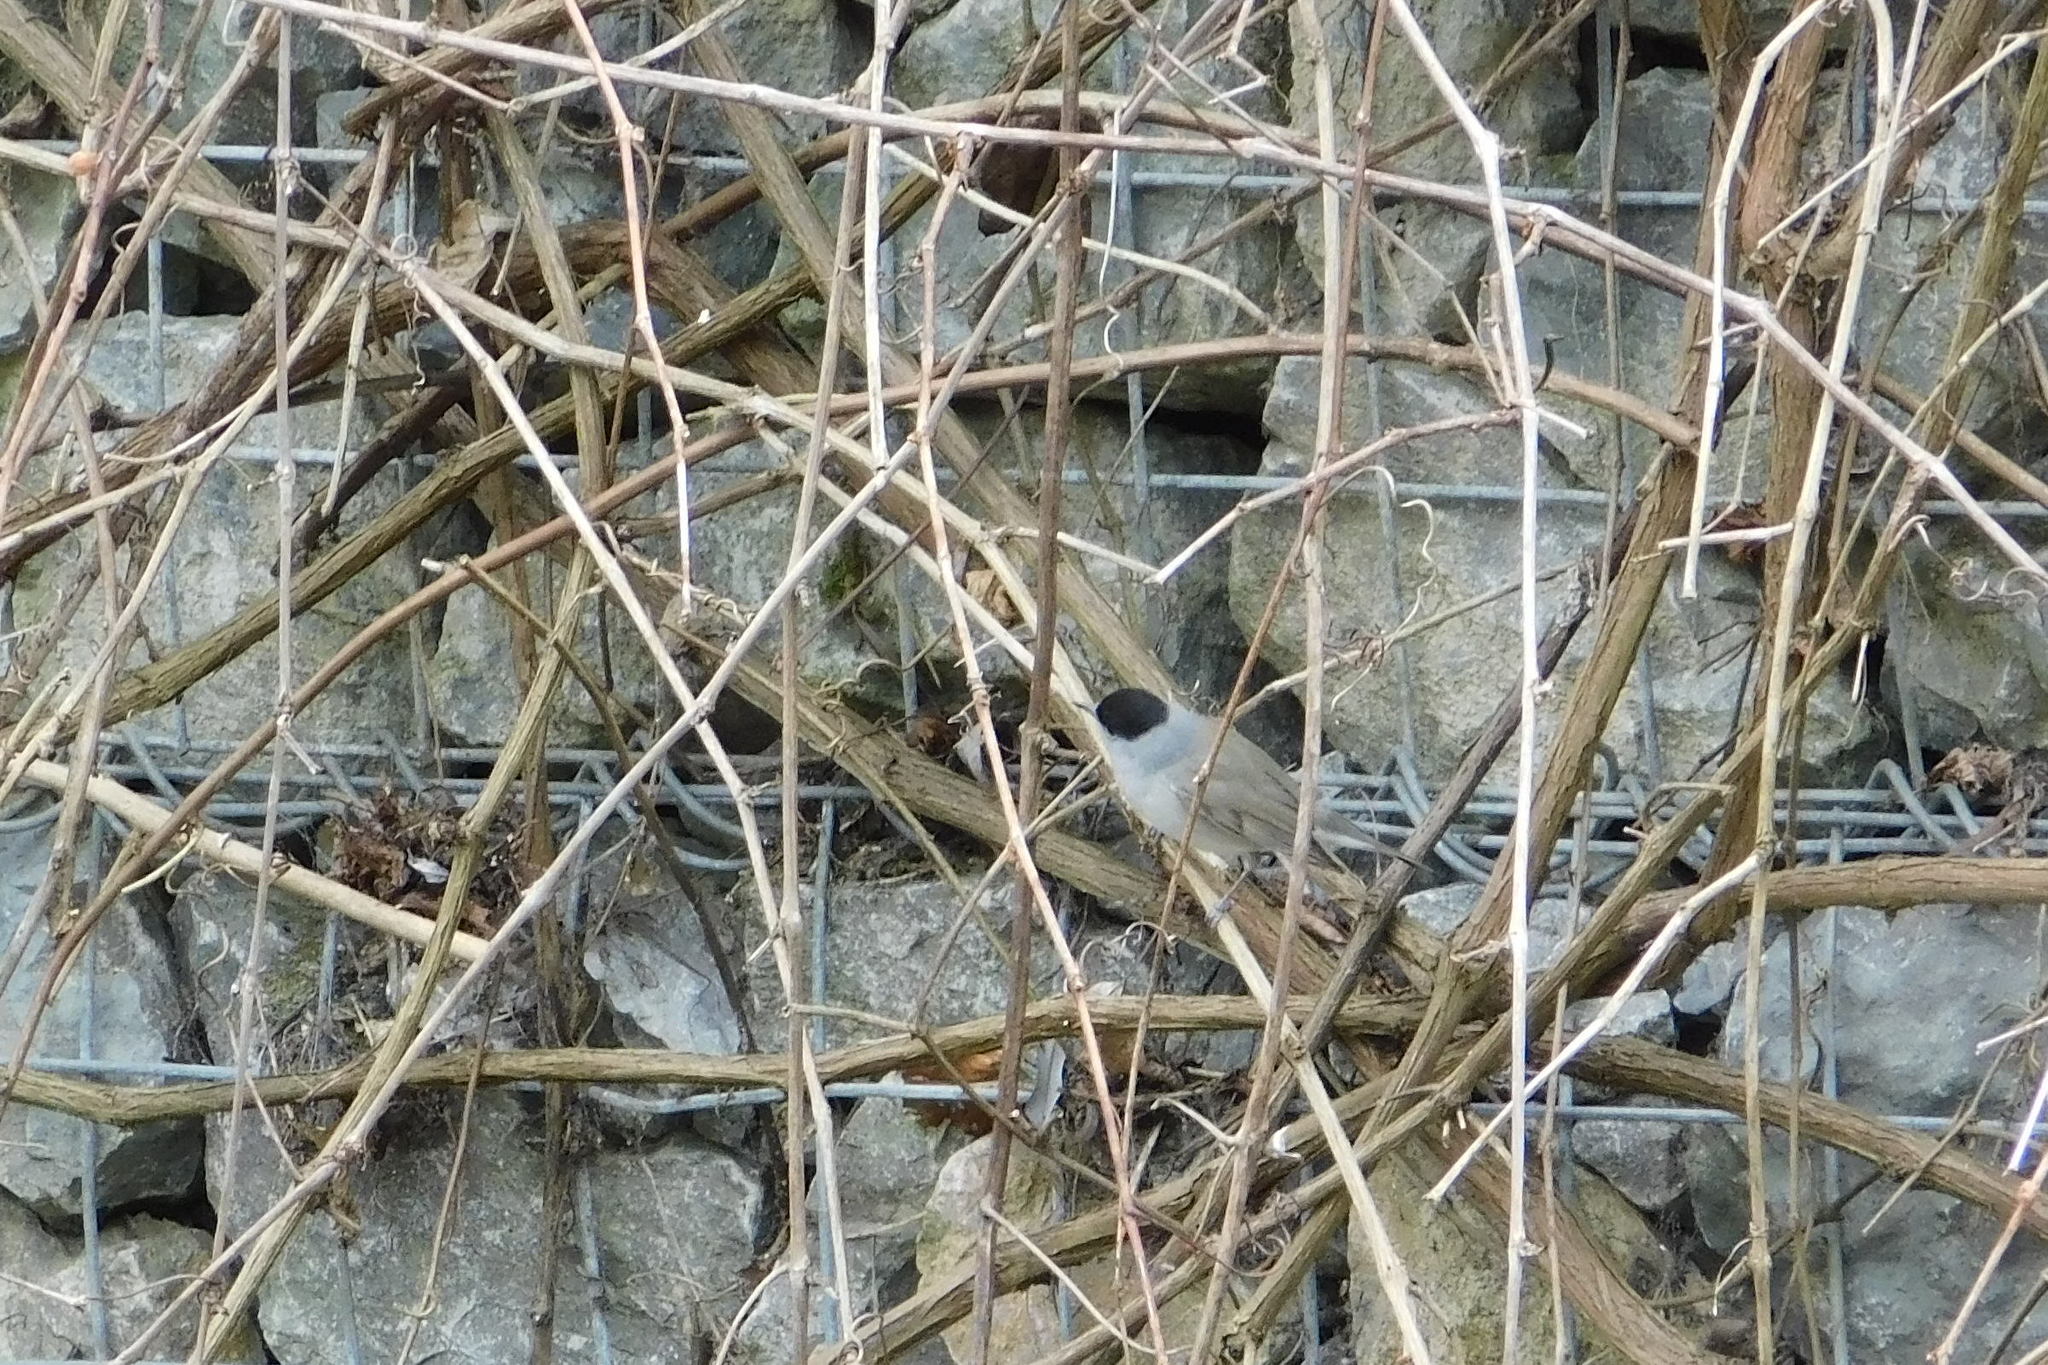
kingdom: Animalia
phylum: Chordata
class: Aves
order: Passeriformes
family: Sylviidae
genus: Sylvia
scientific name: Sylvia atricapilla
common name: Eurasian blackcap
